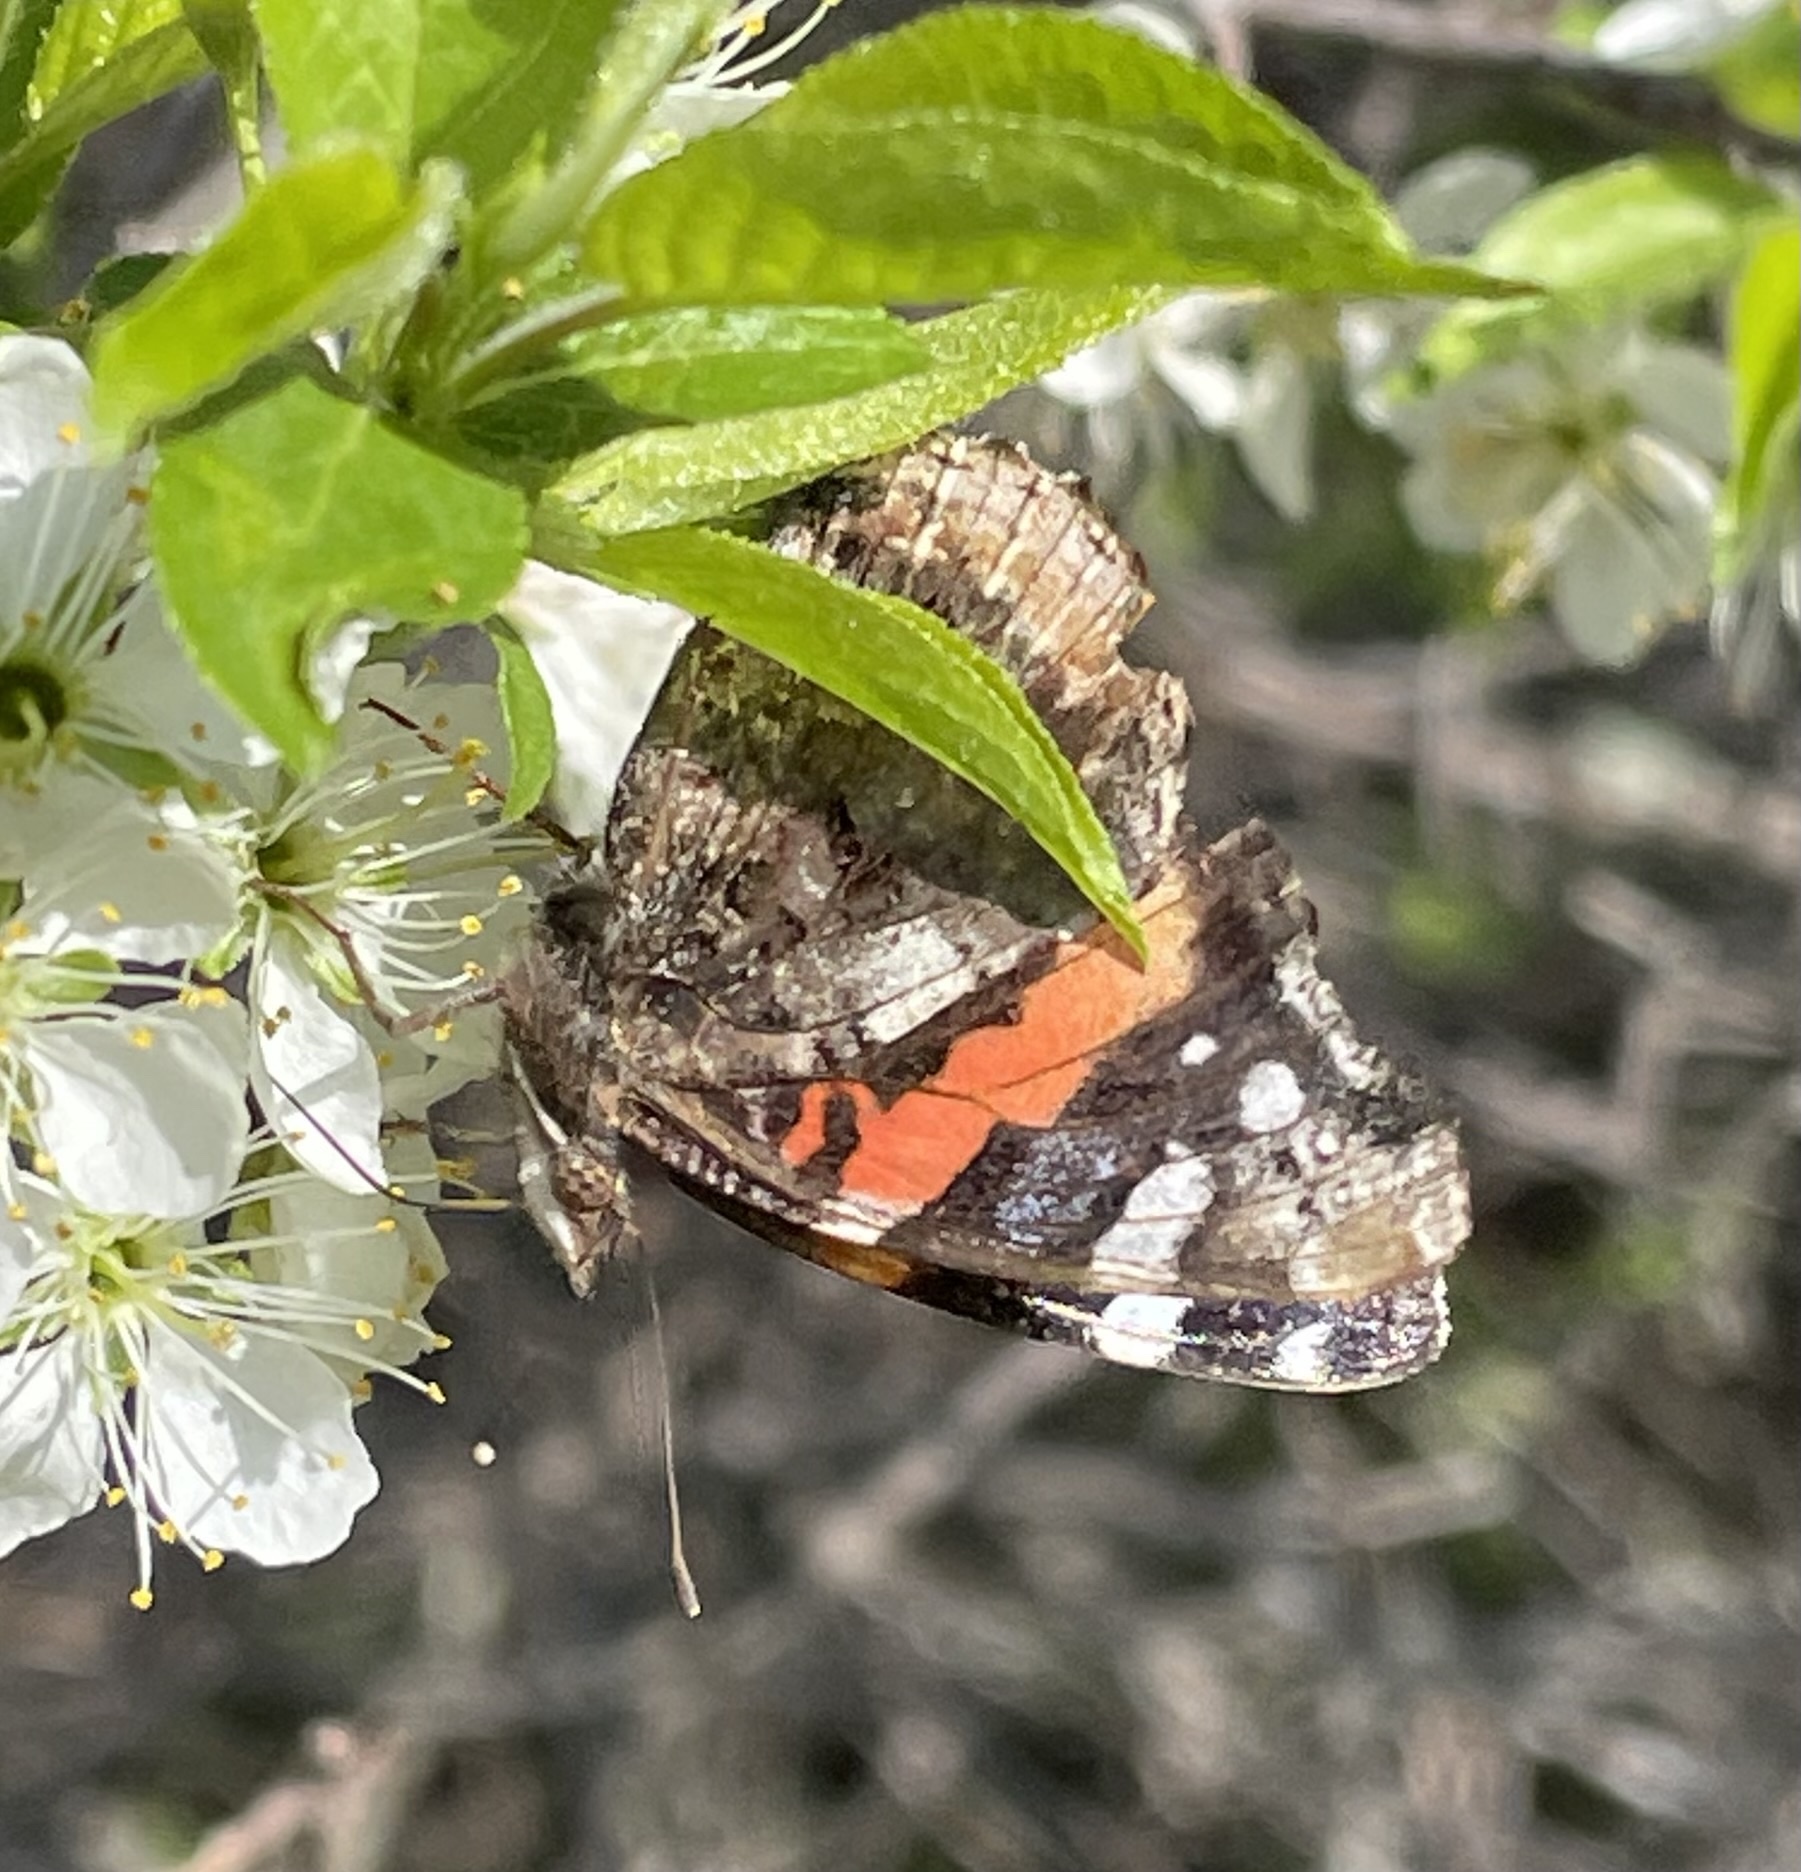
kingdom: Animalia
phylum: Arthropoda
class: Insecta
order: Lepidoptera
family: Nymphalidae
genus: Vanessa
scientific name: Vanessa atalanta
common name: Red admiral
